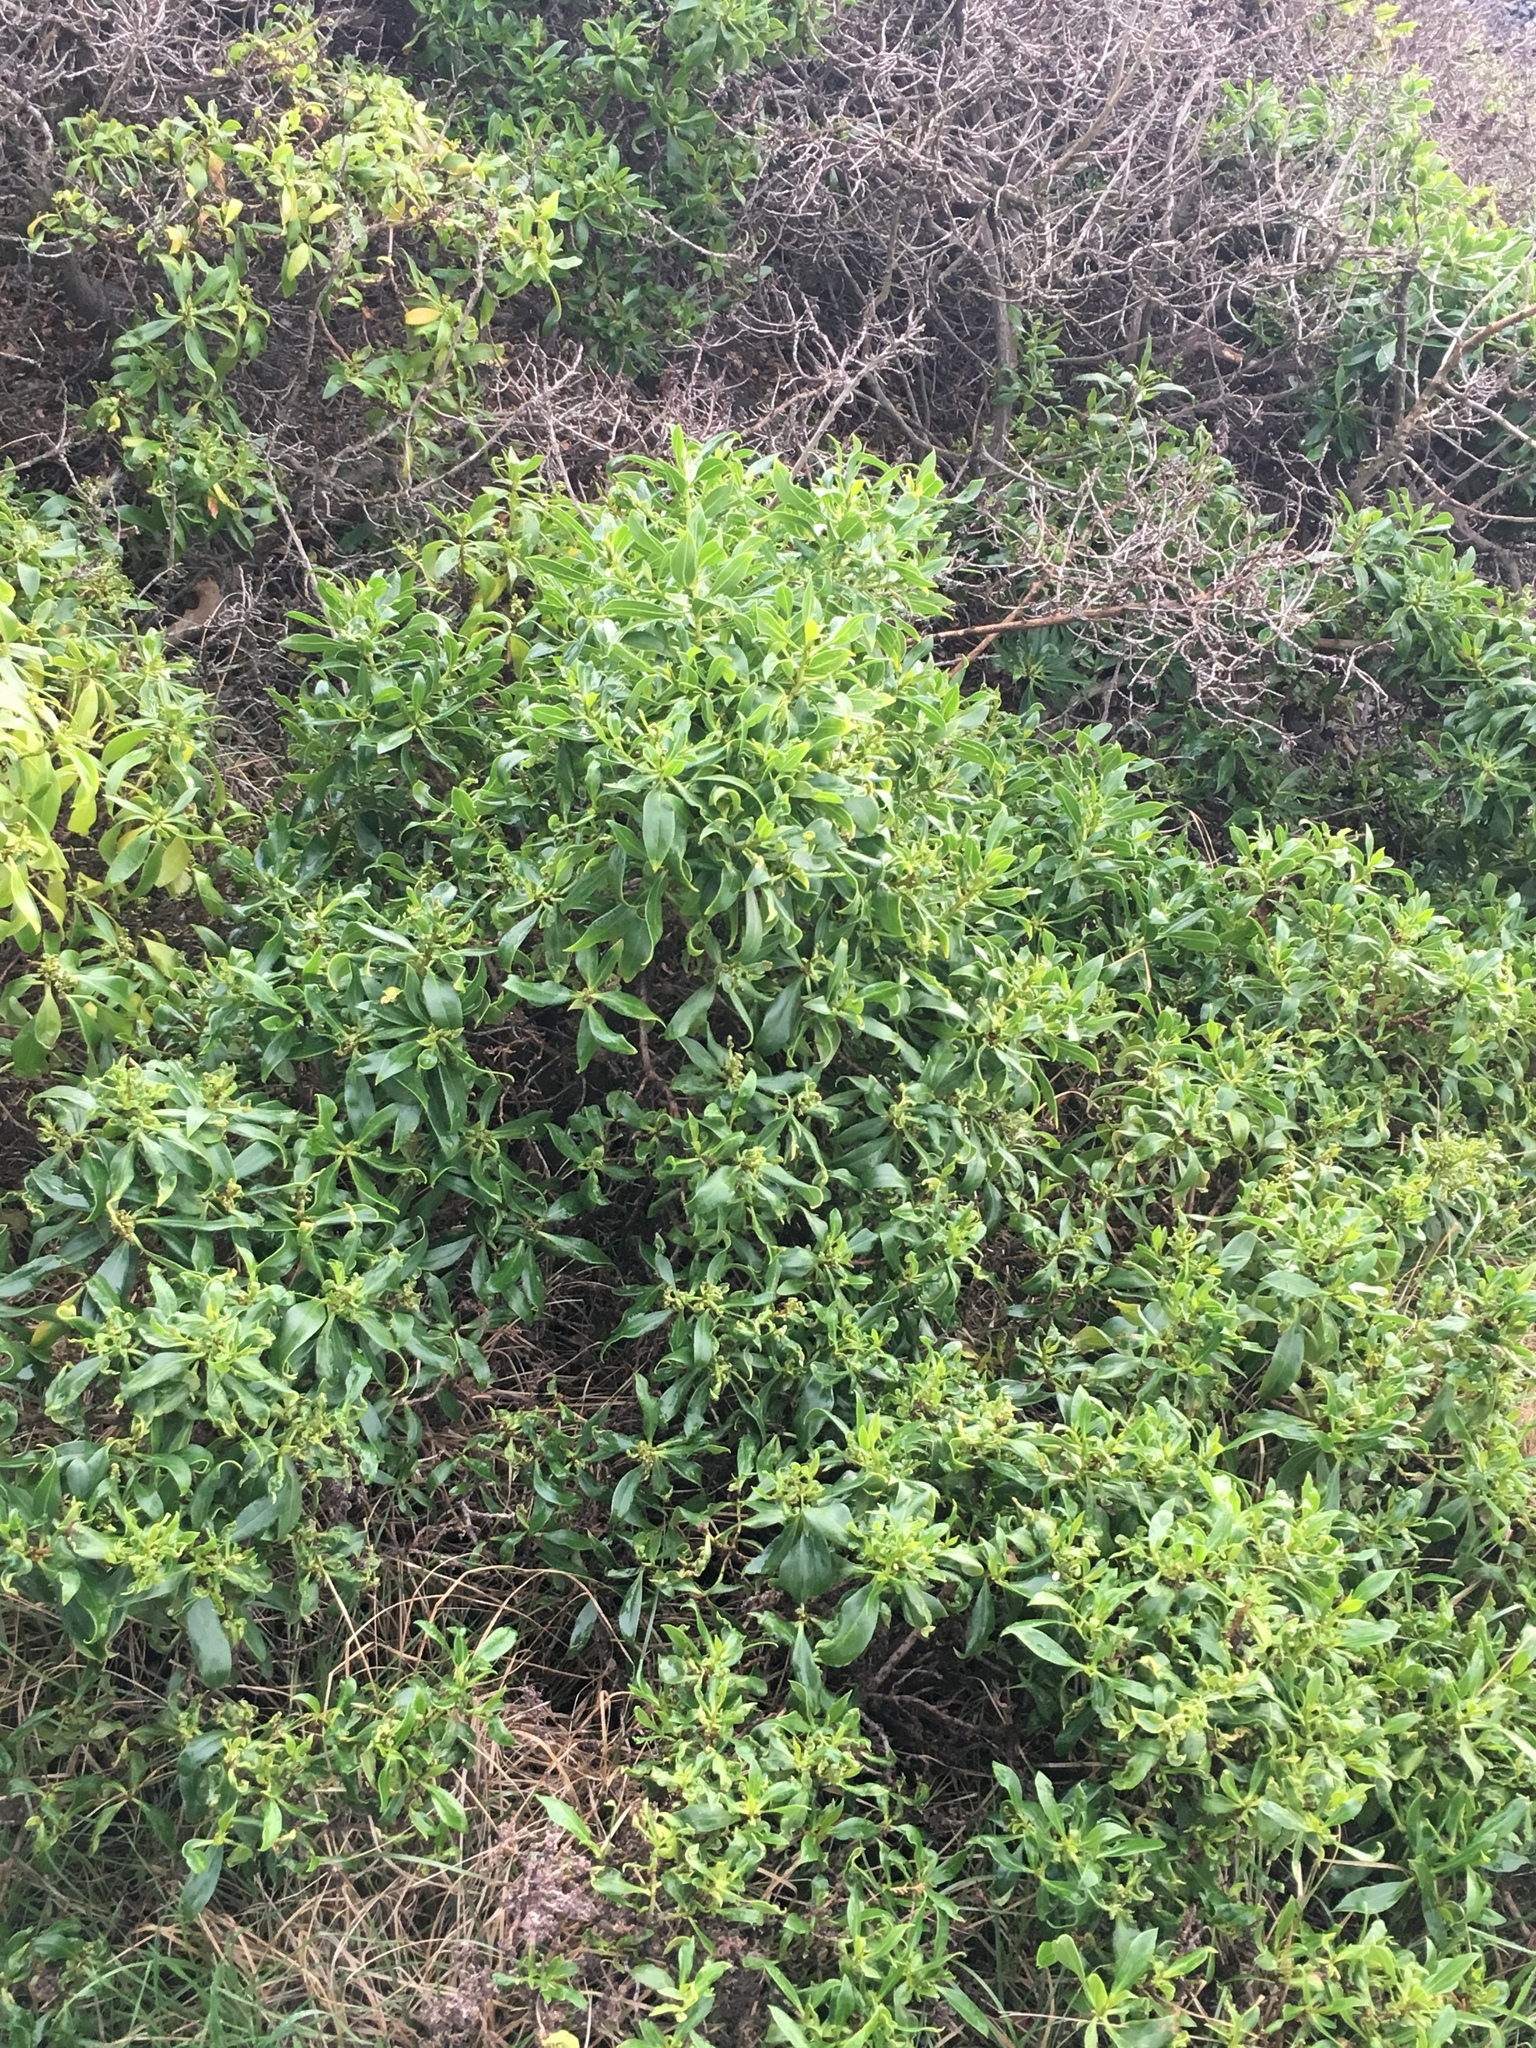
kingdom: Plantae
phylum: Tracheophyta
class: Magnoliopsida
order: Lamiales
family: Scrophulariaceae
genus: Myoporum
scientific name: Myoporum laetum
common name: Ngaio tree
